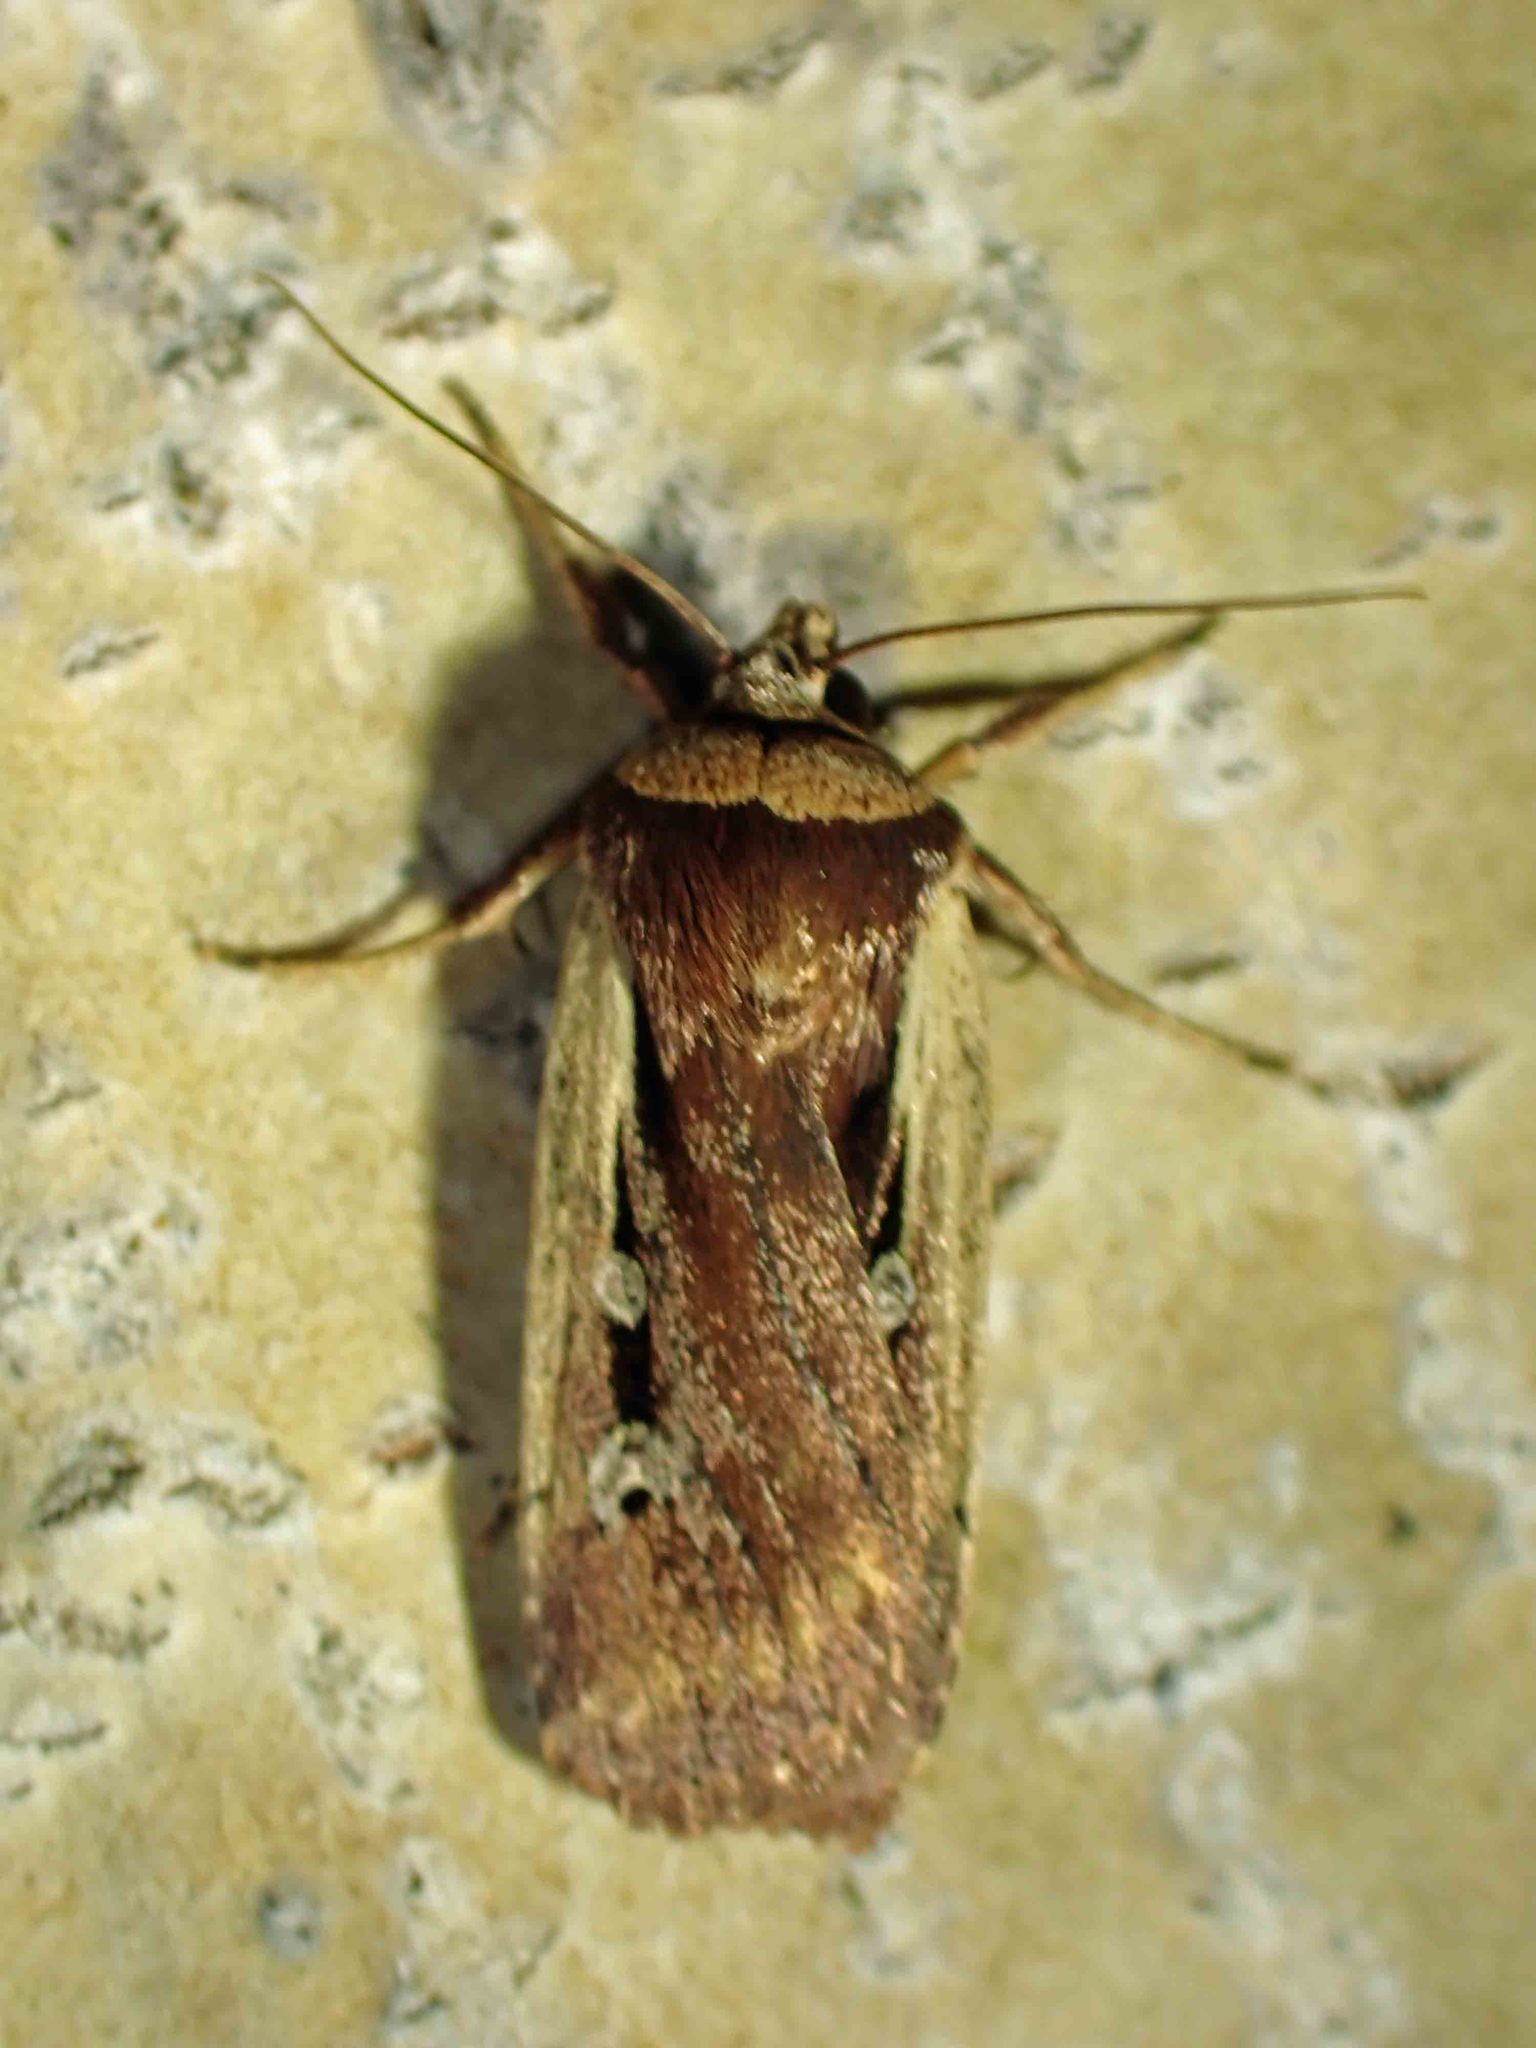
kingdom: Animalia
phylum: Arthropoda
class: Insecta
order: Lepidoptera
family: Noctuidae
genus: Ochropleura
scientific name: Ochropleura implecta
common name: Flame-shouldered dart
